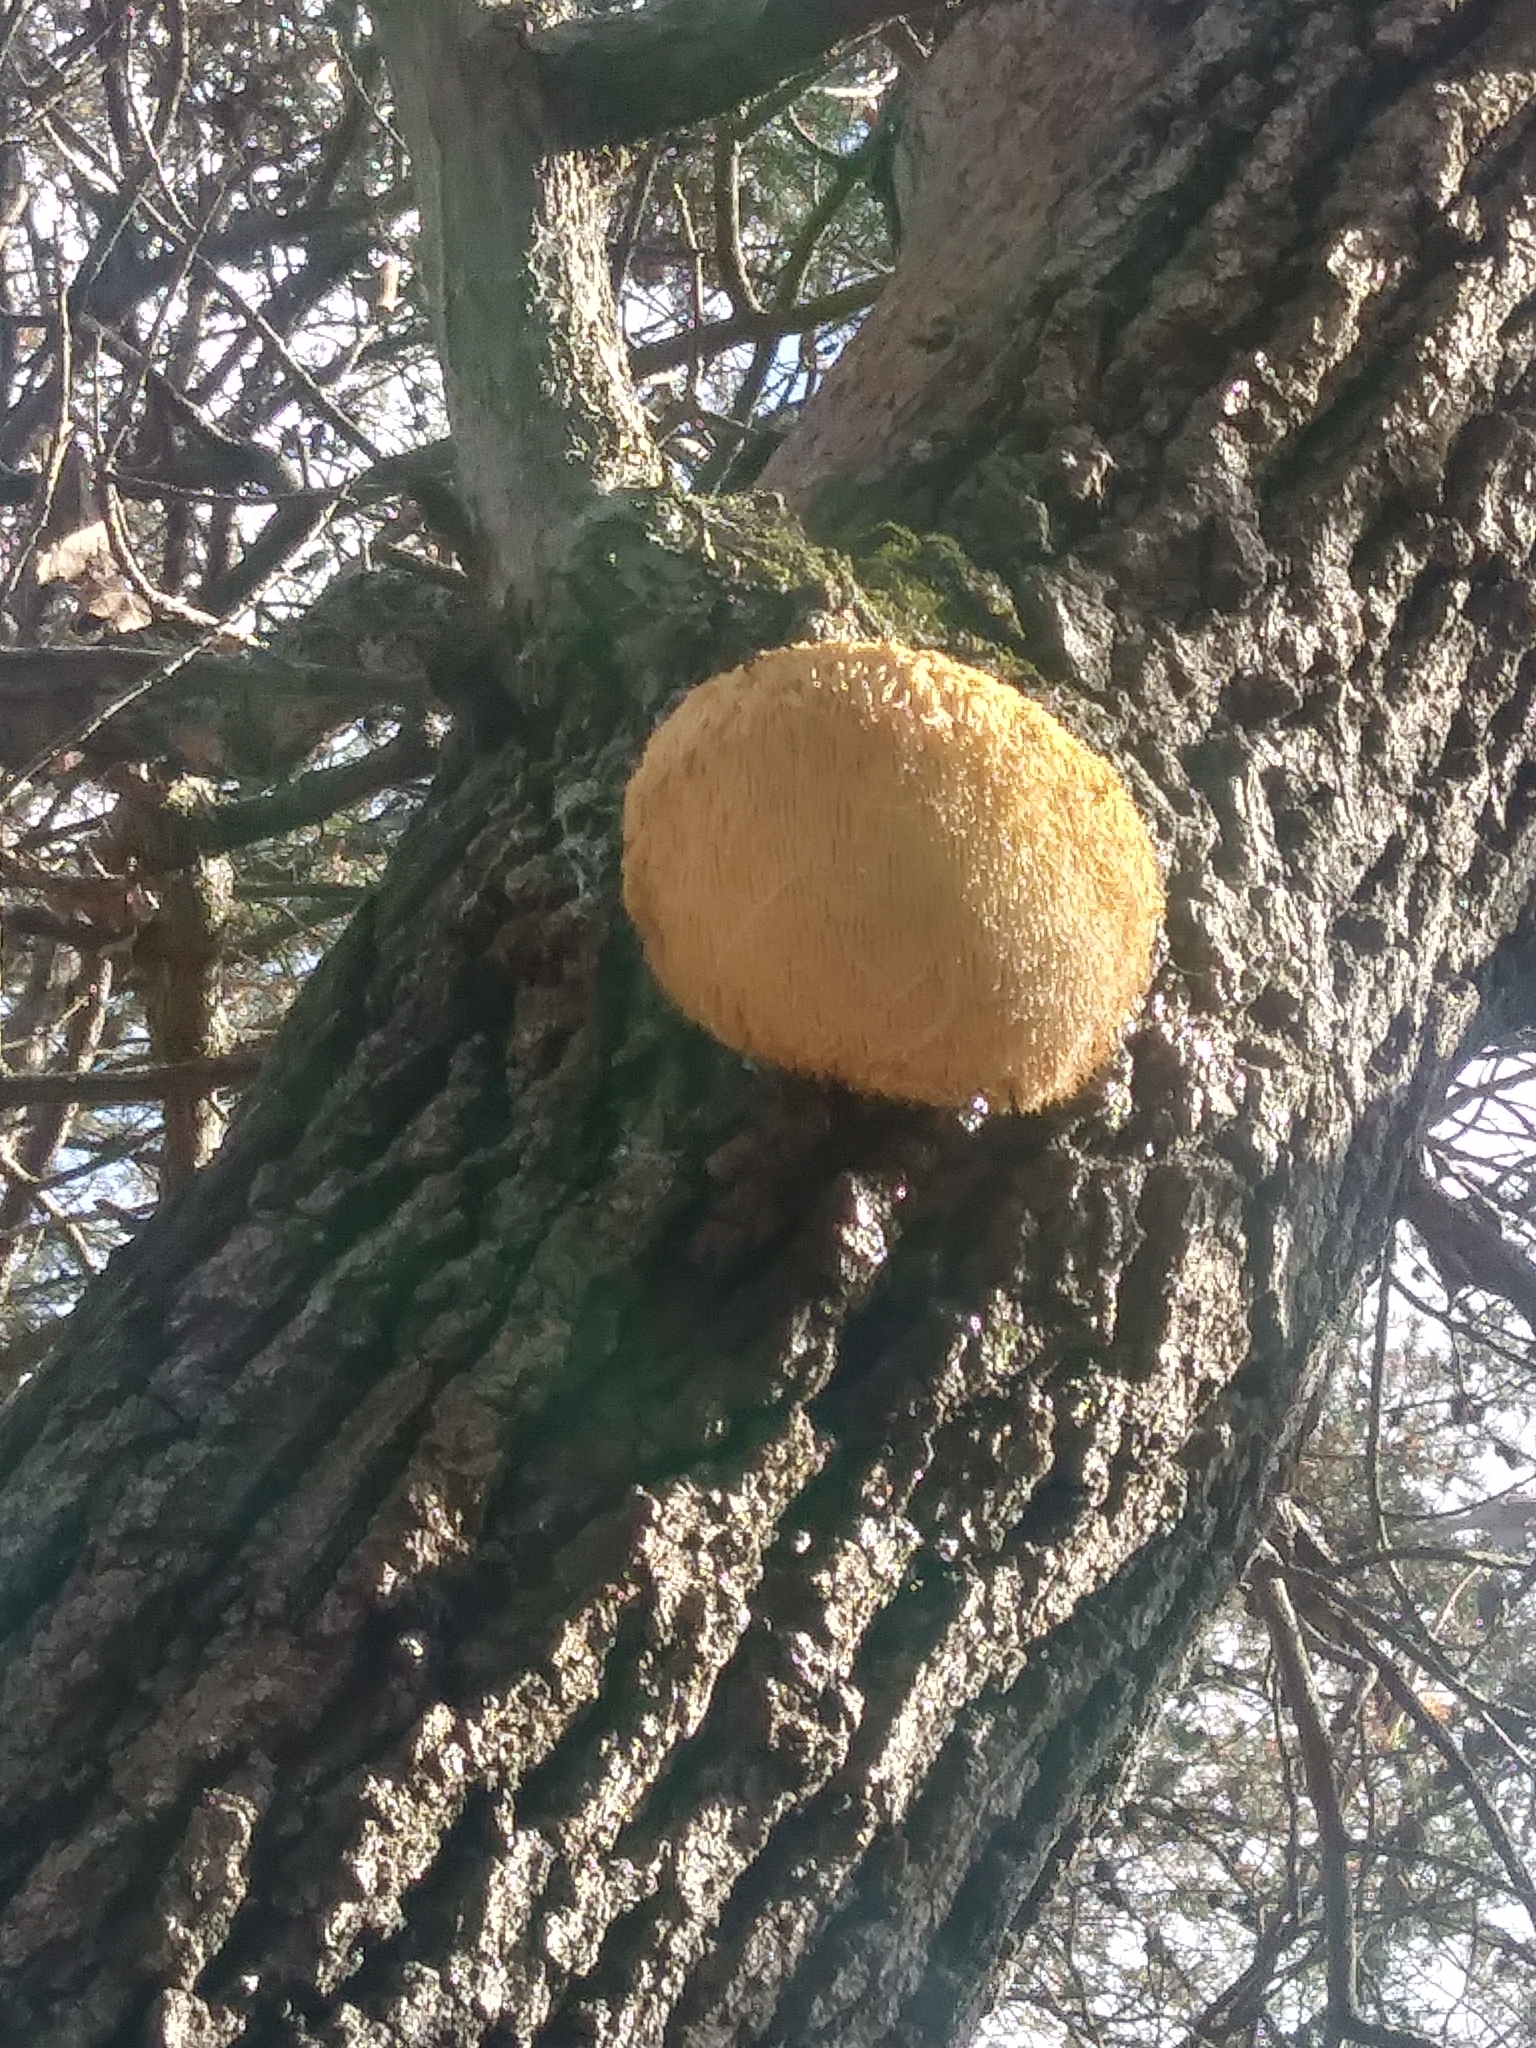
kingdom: Fungi
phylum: Basidiomycota
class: Agaricomycetes
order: Russulales
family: Hericiaceae
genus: Hericium
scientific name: Hericium erinaceus
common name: Bearded tooth
